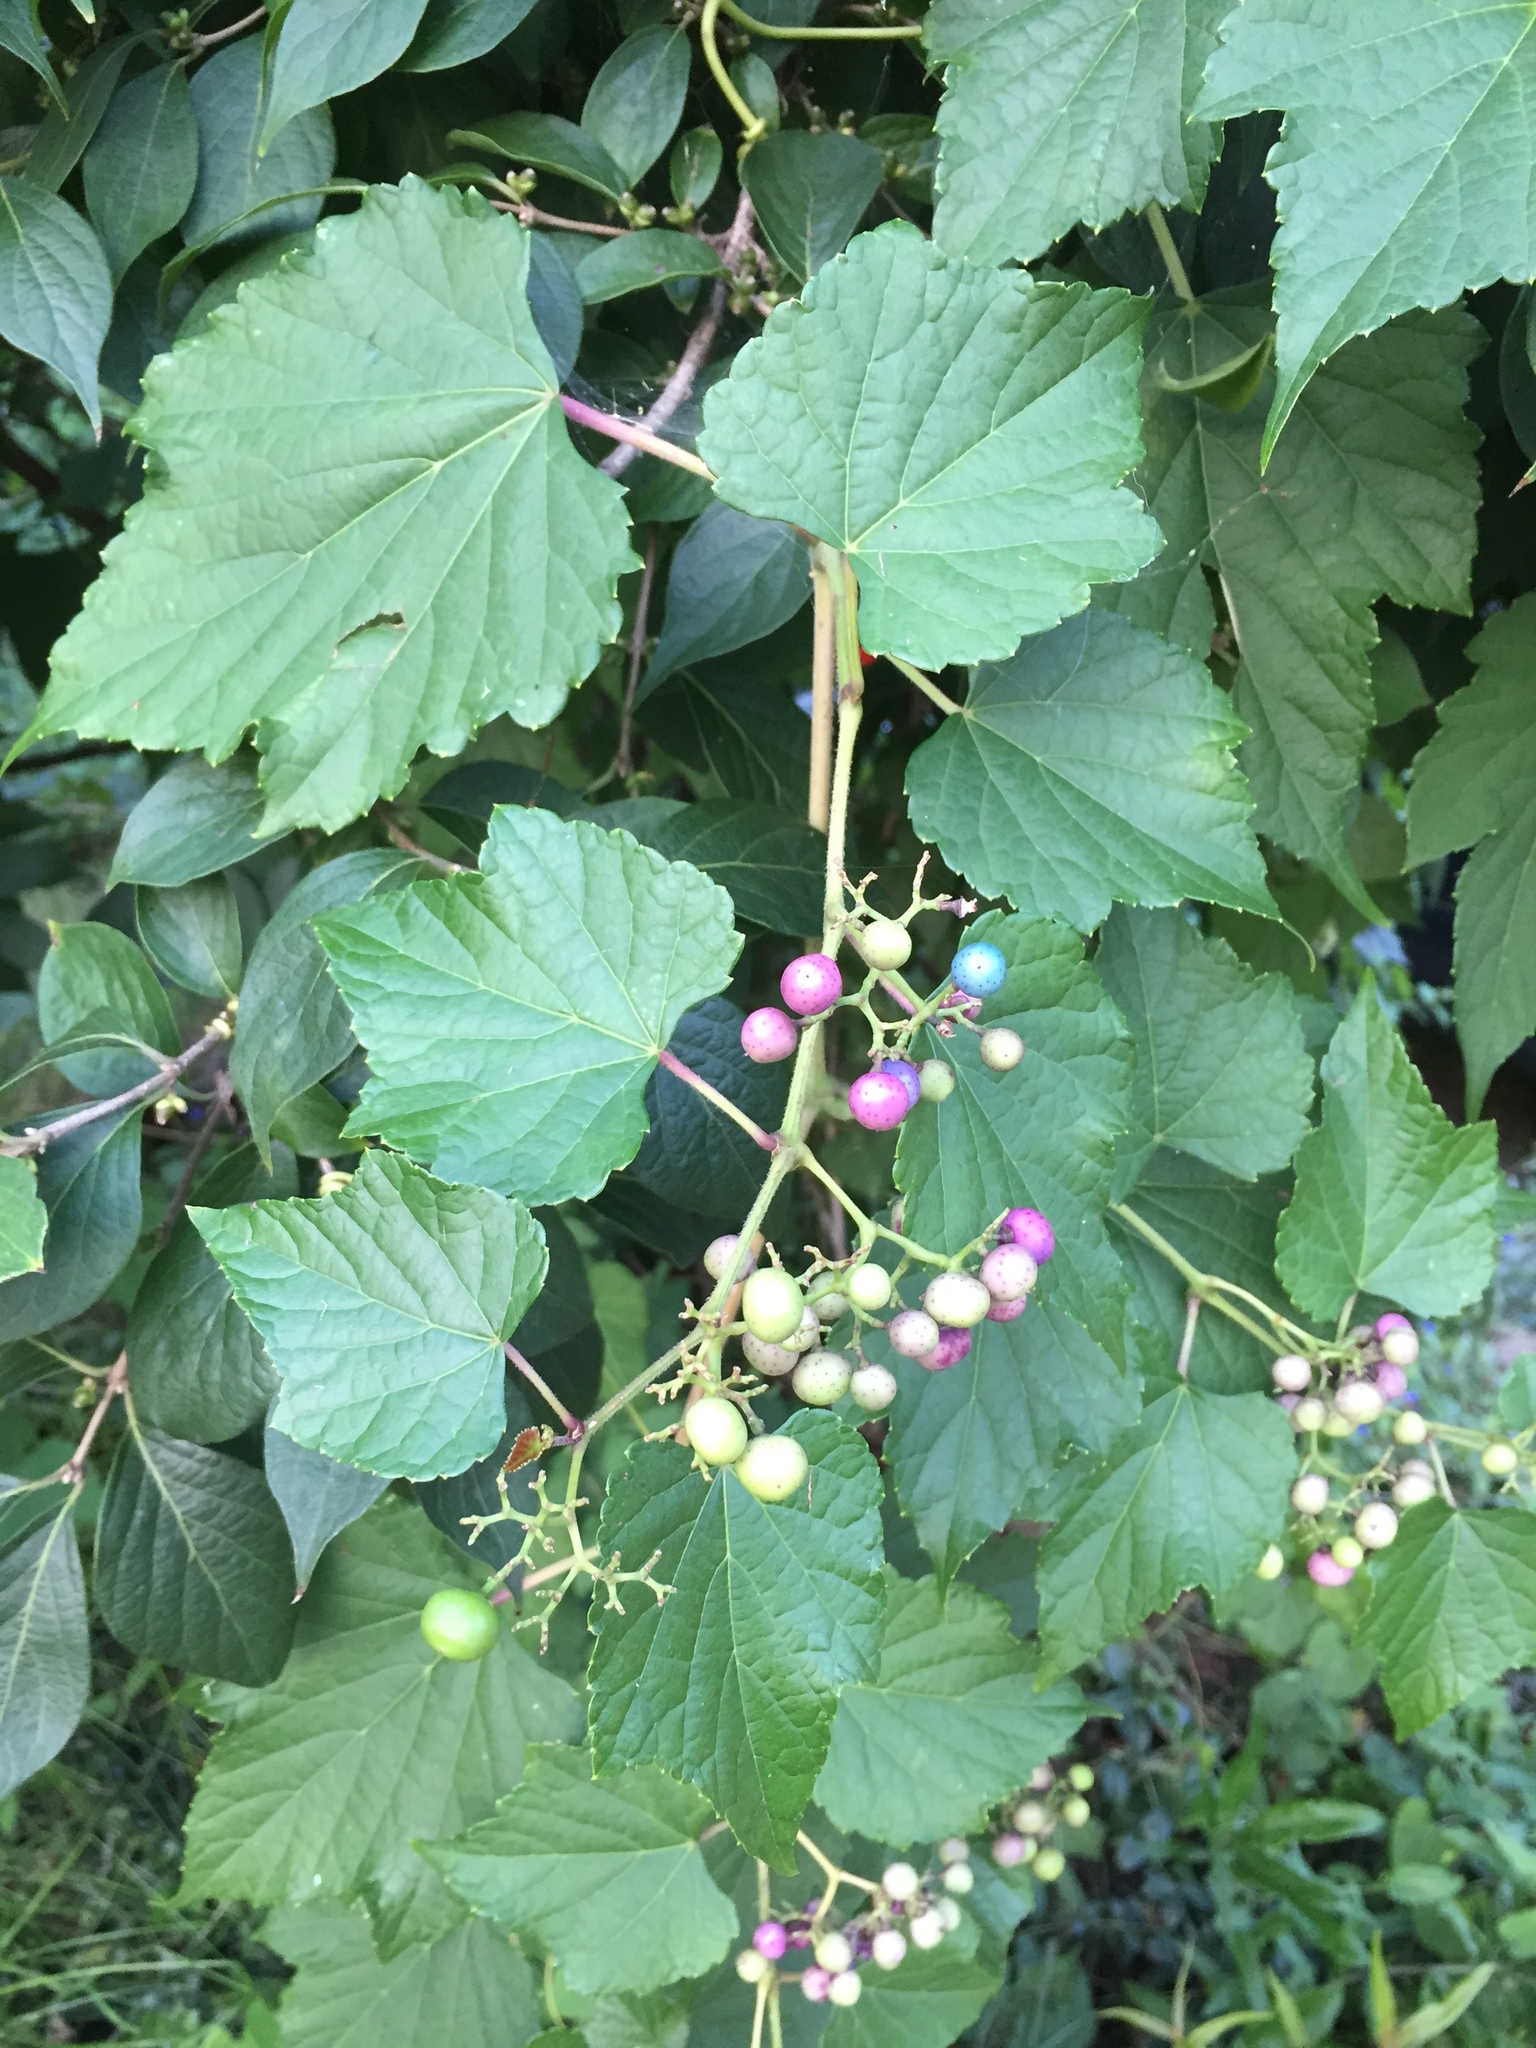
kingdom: Plantae
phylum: Tracheophyta
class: Magnoliopsida
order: Vitales
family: Vitaceae
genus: Ampelopsis
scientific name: Ampelopsis glandulosa
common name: Amur peppervine
